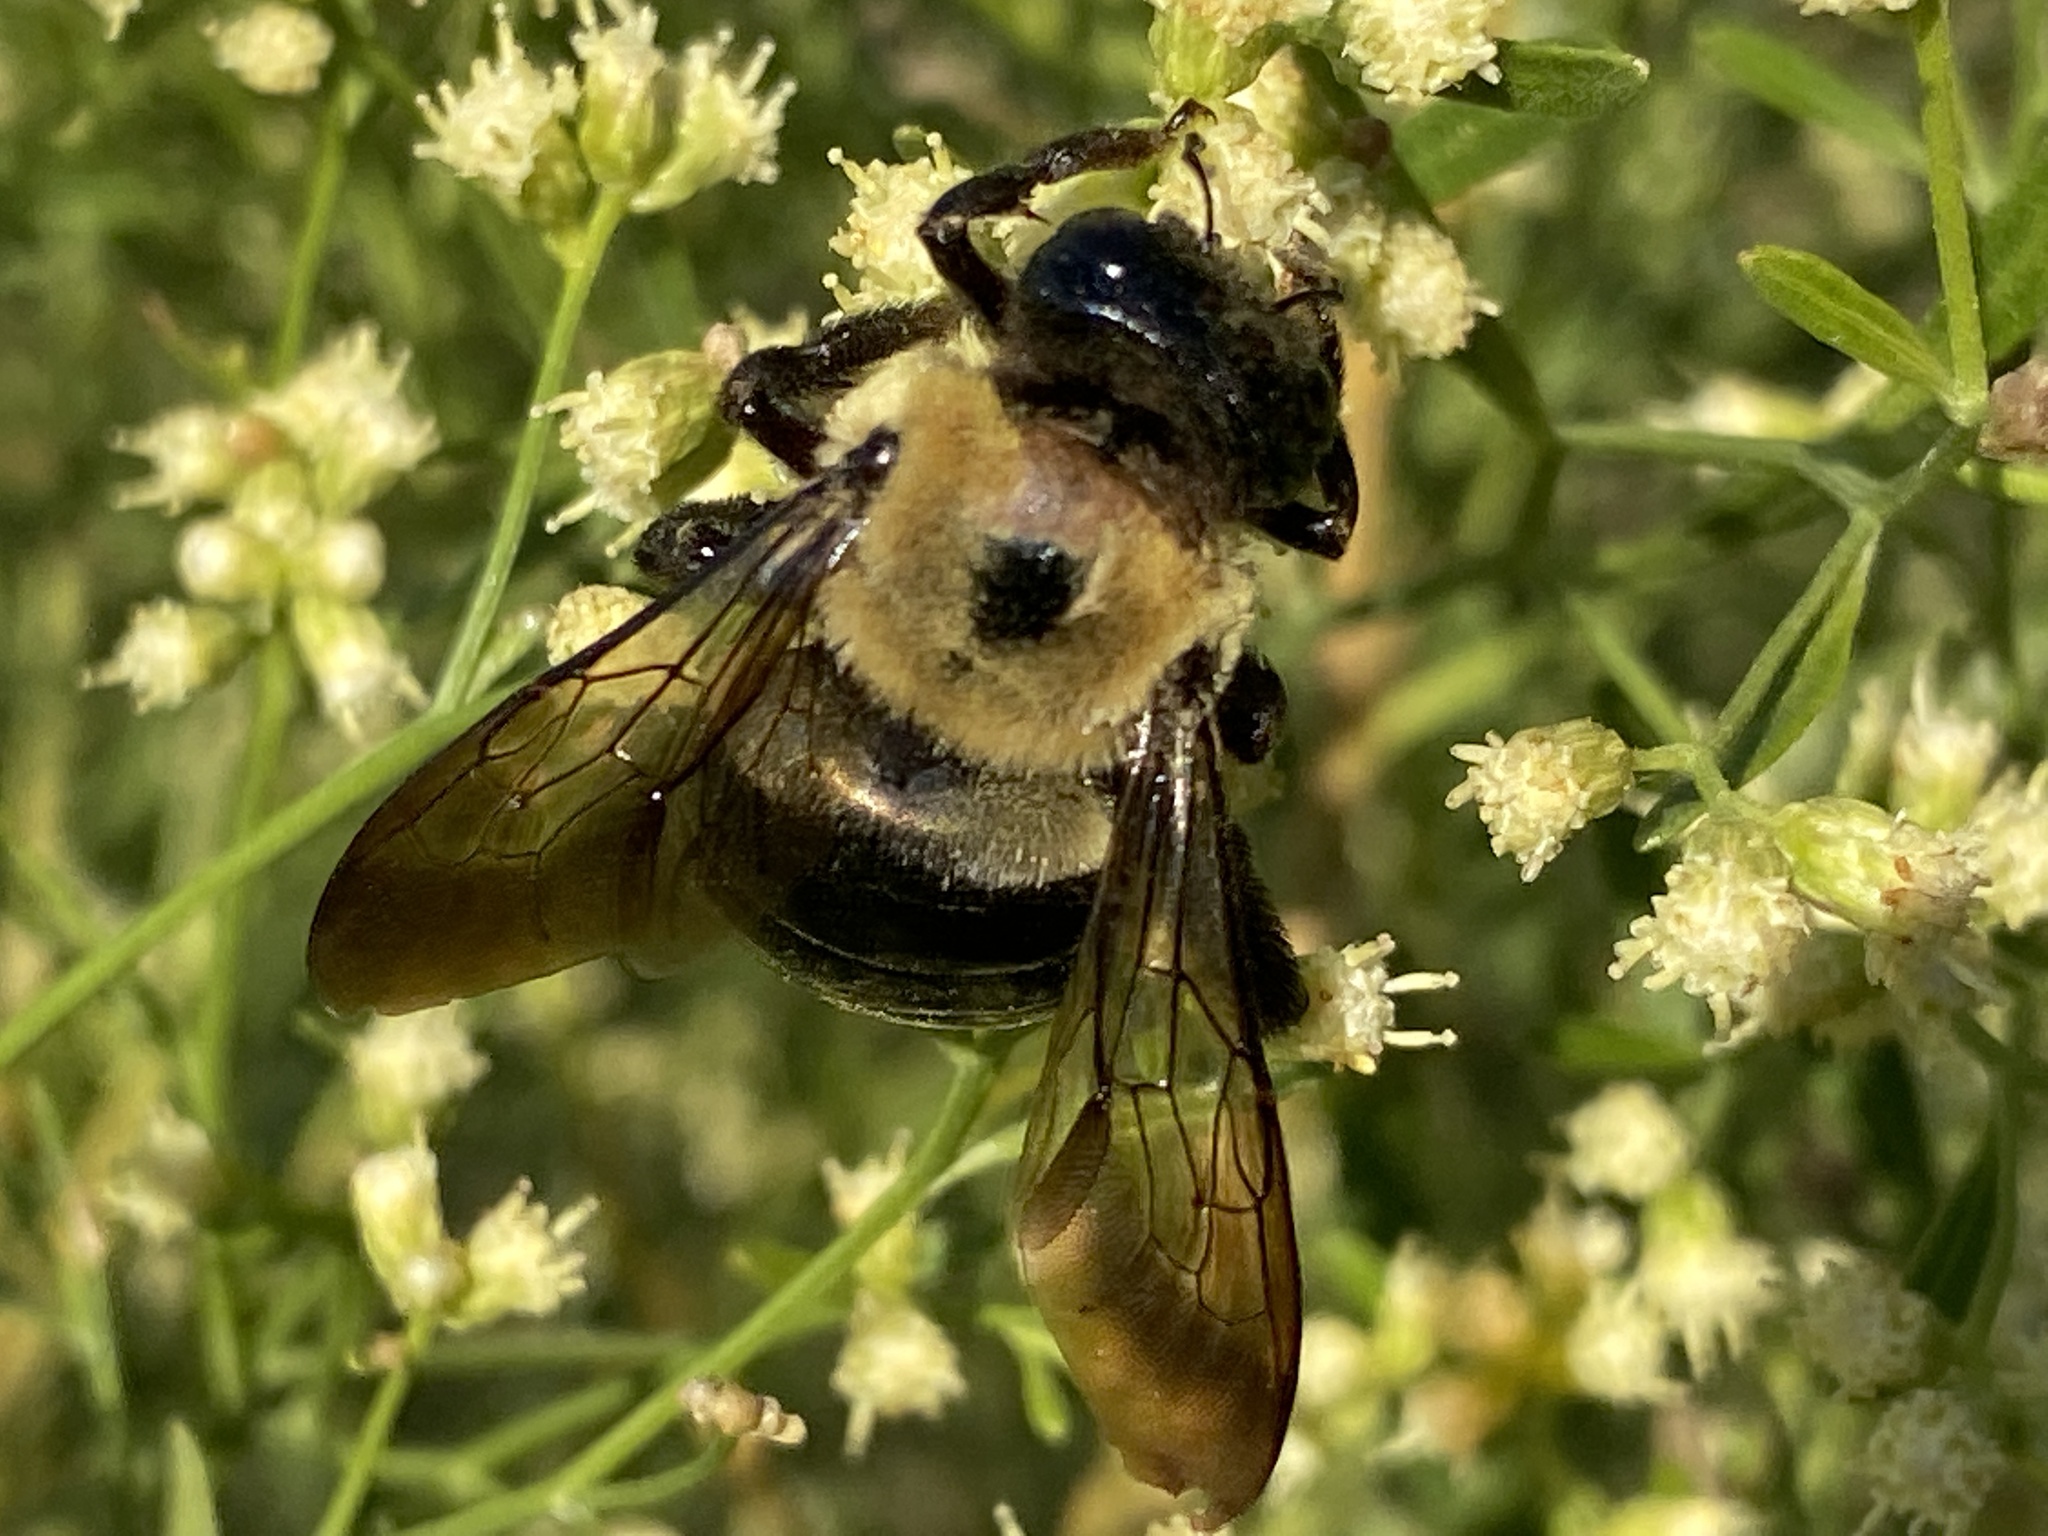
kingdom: Animalia
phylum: Arthropoda
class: Insecta
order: Hymenoptera
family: Apidae
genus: Xylocopa
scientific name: Xylocopa virginica
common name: Carpenter bee
